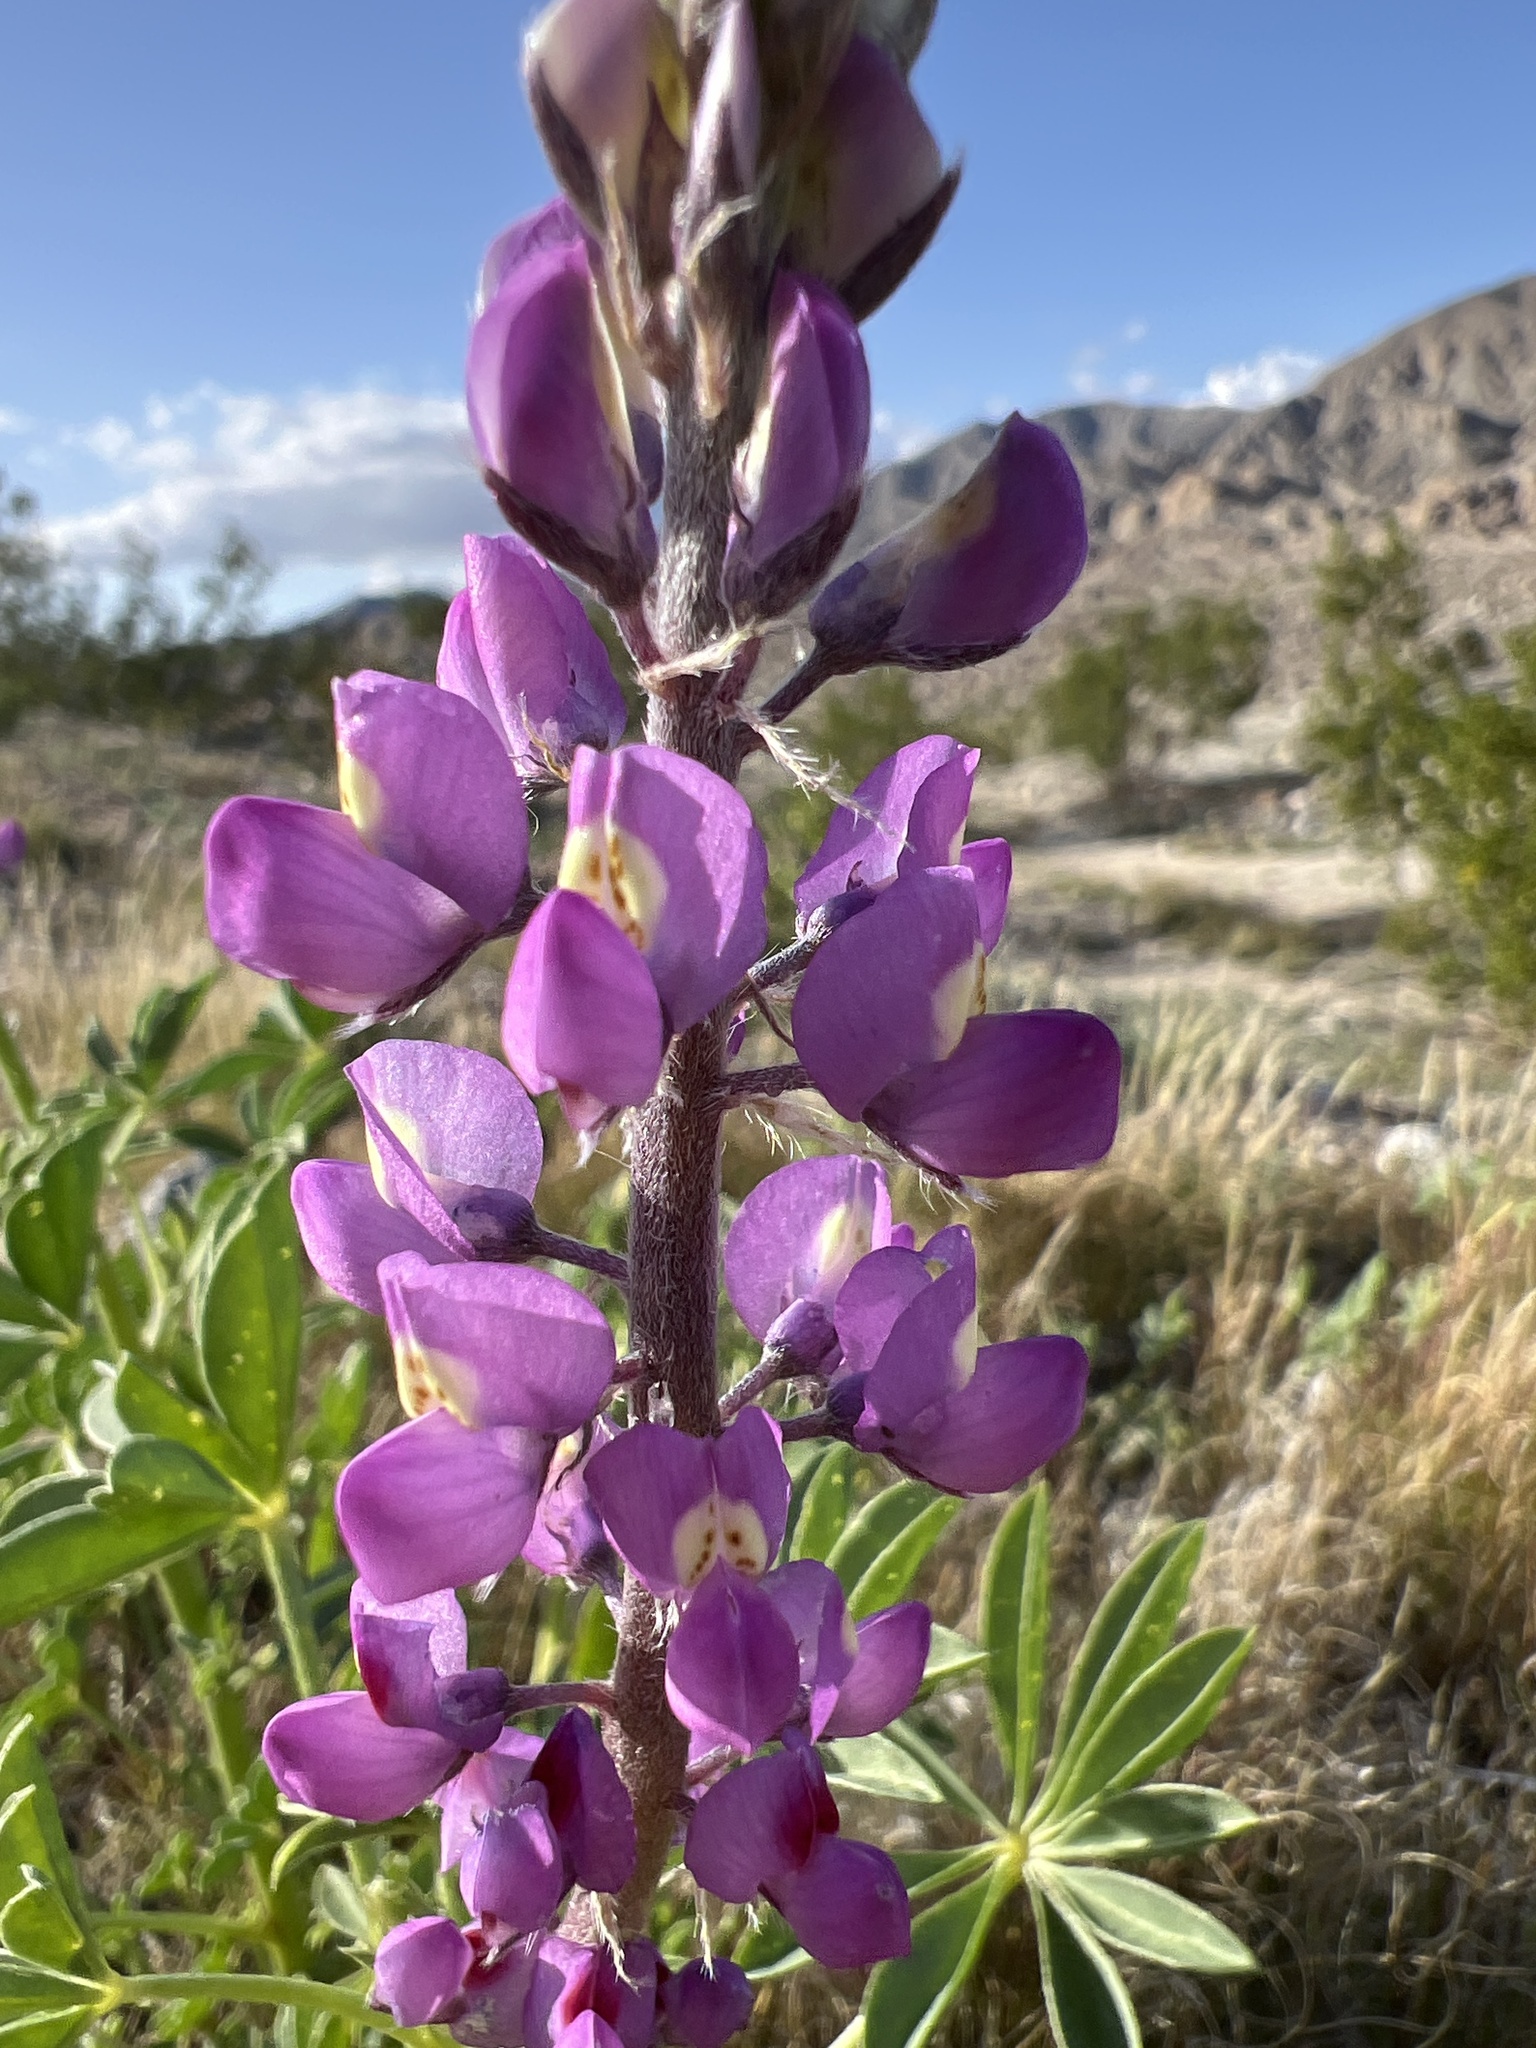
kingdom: Plantae
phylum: Tracheophyta
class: Magnoliopsida
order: Fabales
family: Fabaceae
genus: Lupinus
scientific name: Lupinus arizonicus
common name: Arizona lupine
